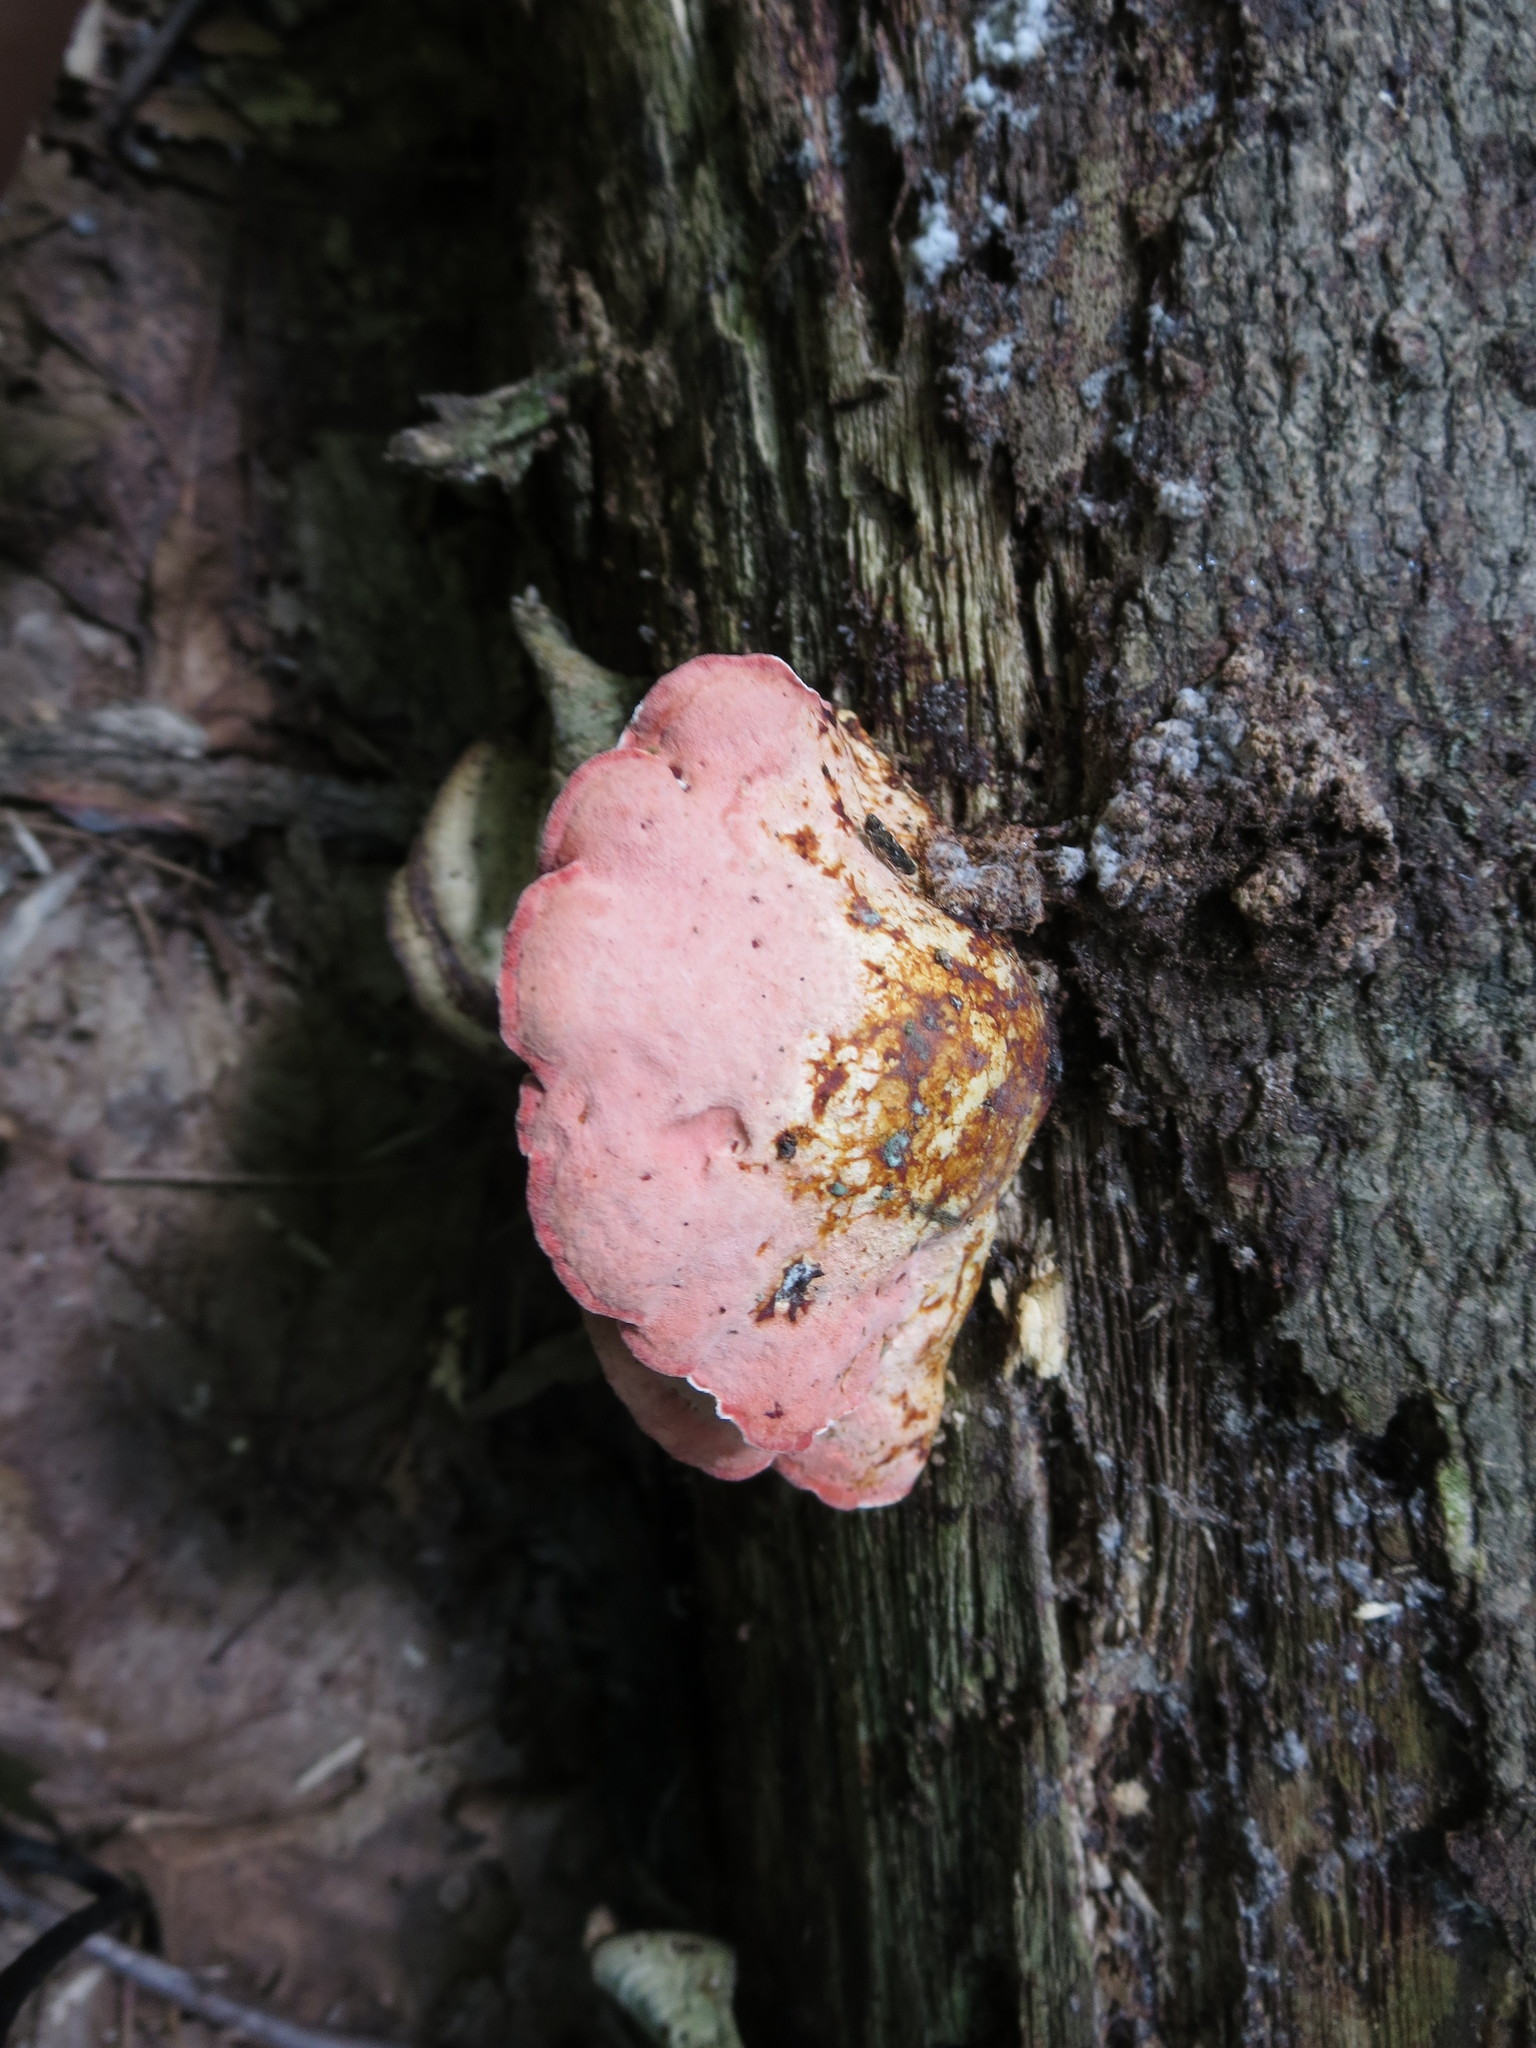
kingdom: Fungi
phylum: Basidiomycota
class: Agaricomycetes
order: Polyporales
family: Irpicaceae
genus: Byssomerulius
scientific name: Byssomerulius incarnatus
